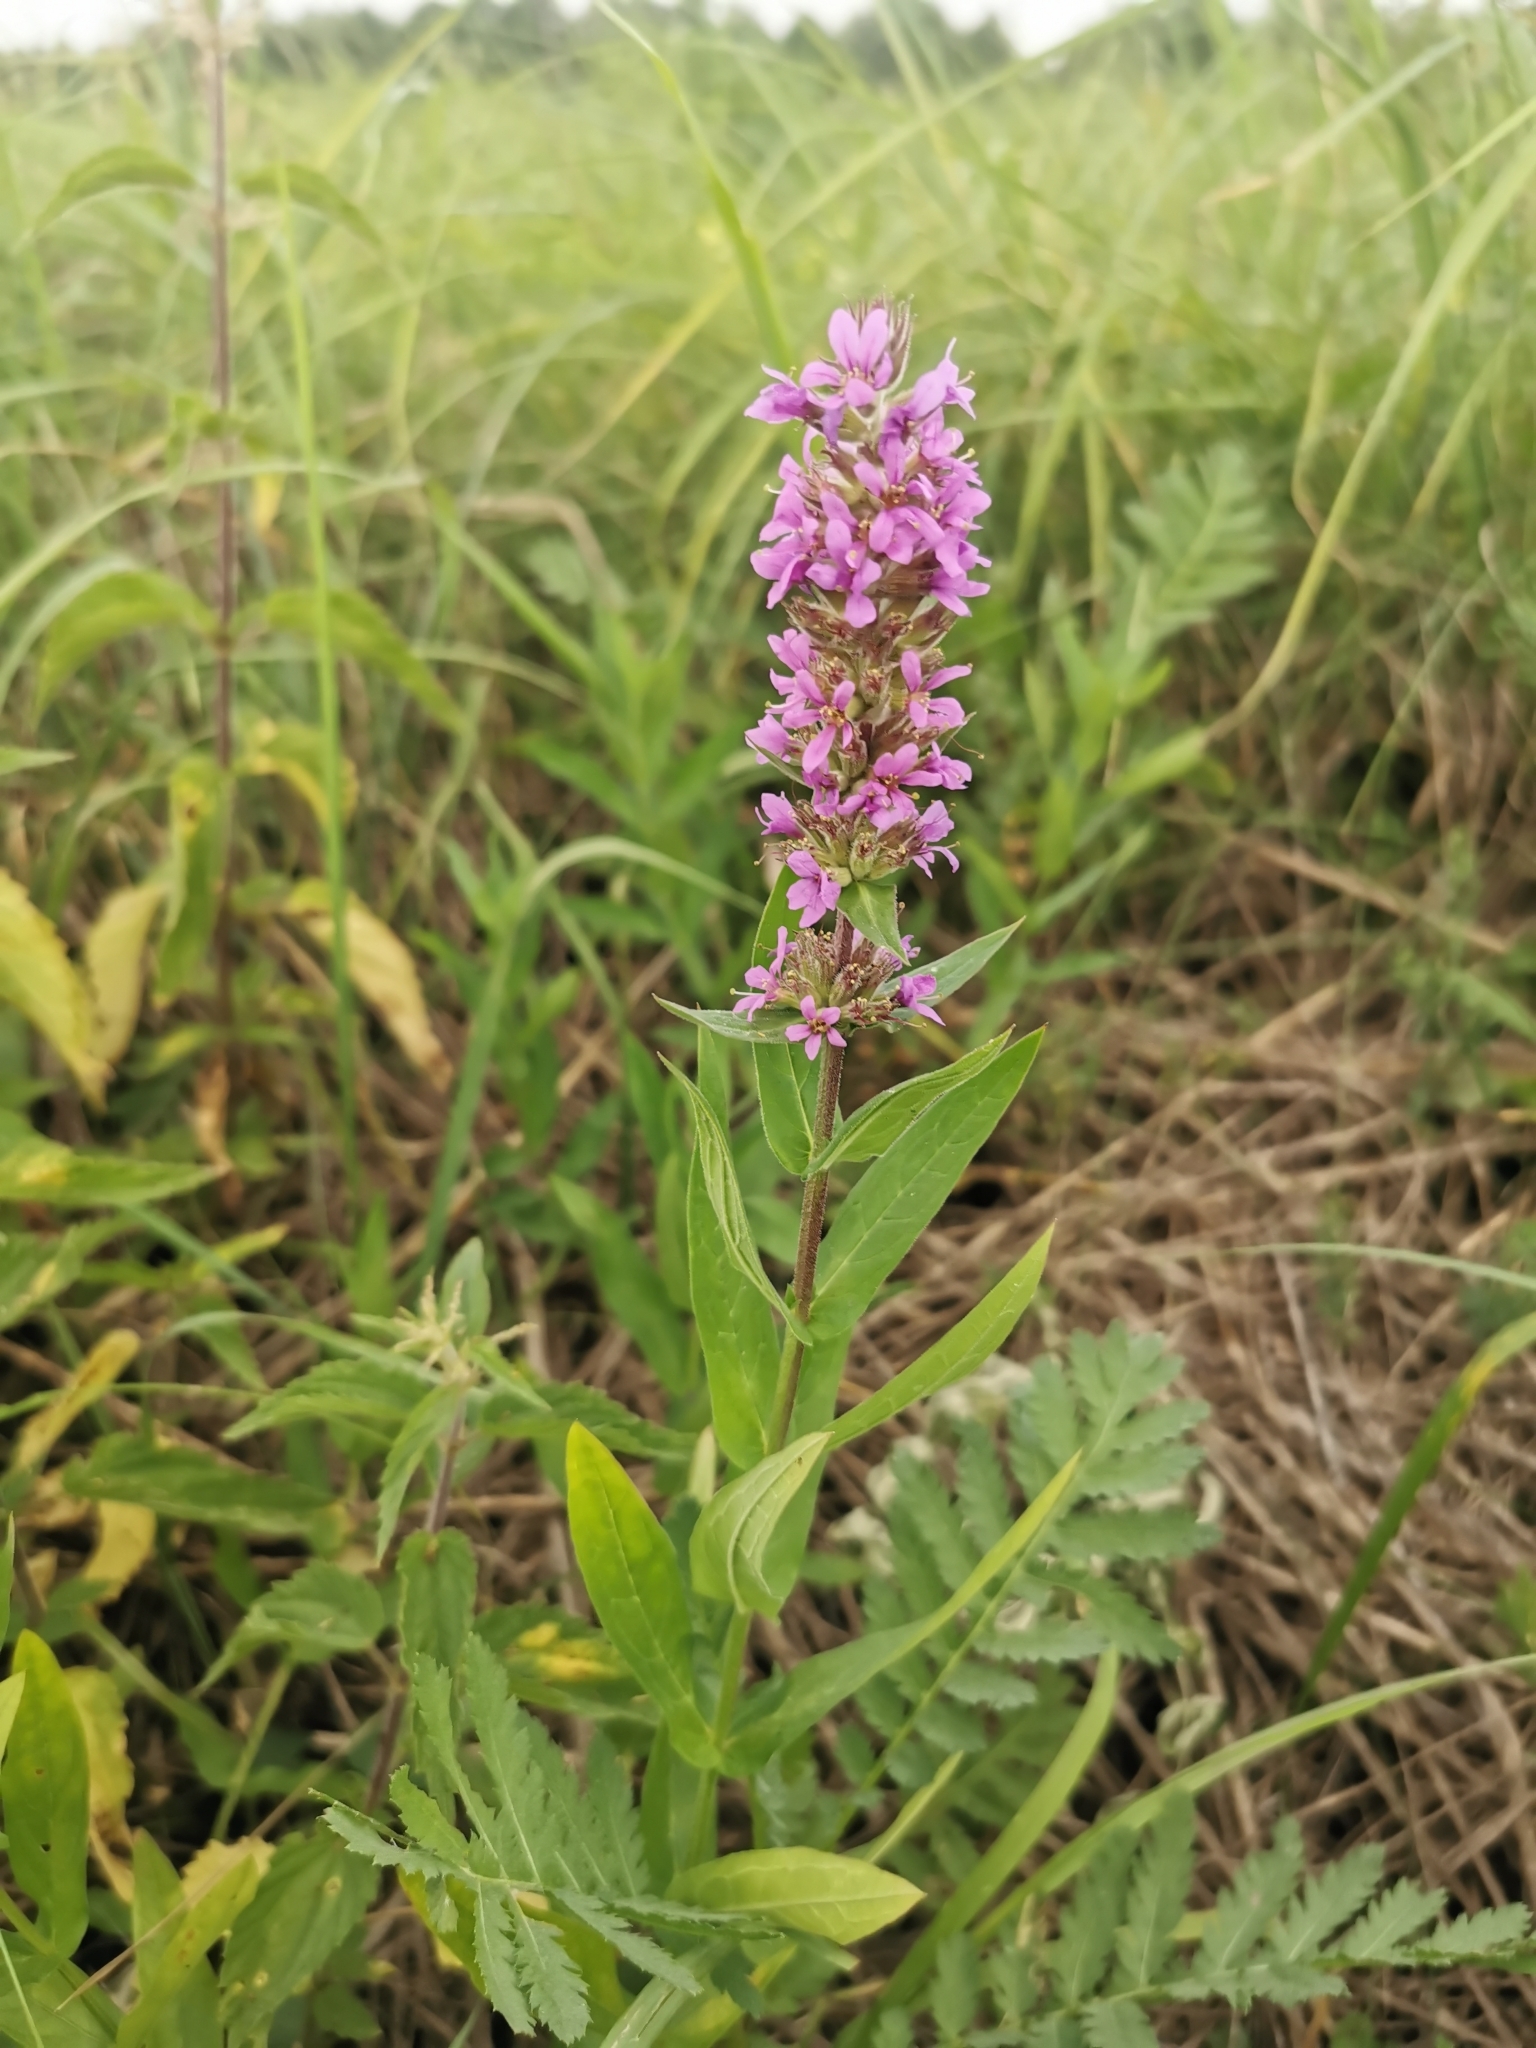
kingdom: Plantae
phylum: Tracheophyta
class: Magnoliopsida
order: Lamiales
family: Lamiaceae
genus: Stachys
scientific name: Stachys palustris
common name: Marsh woundwort
